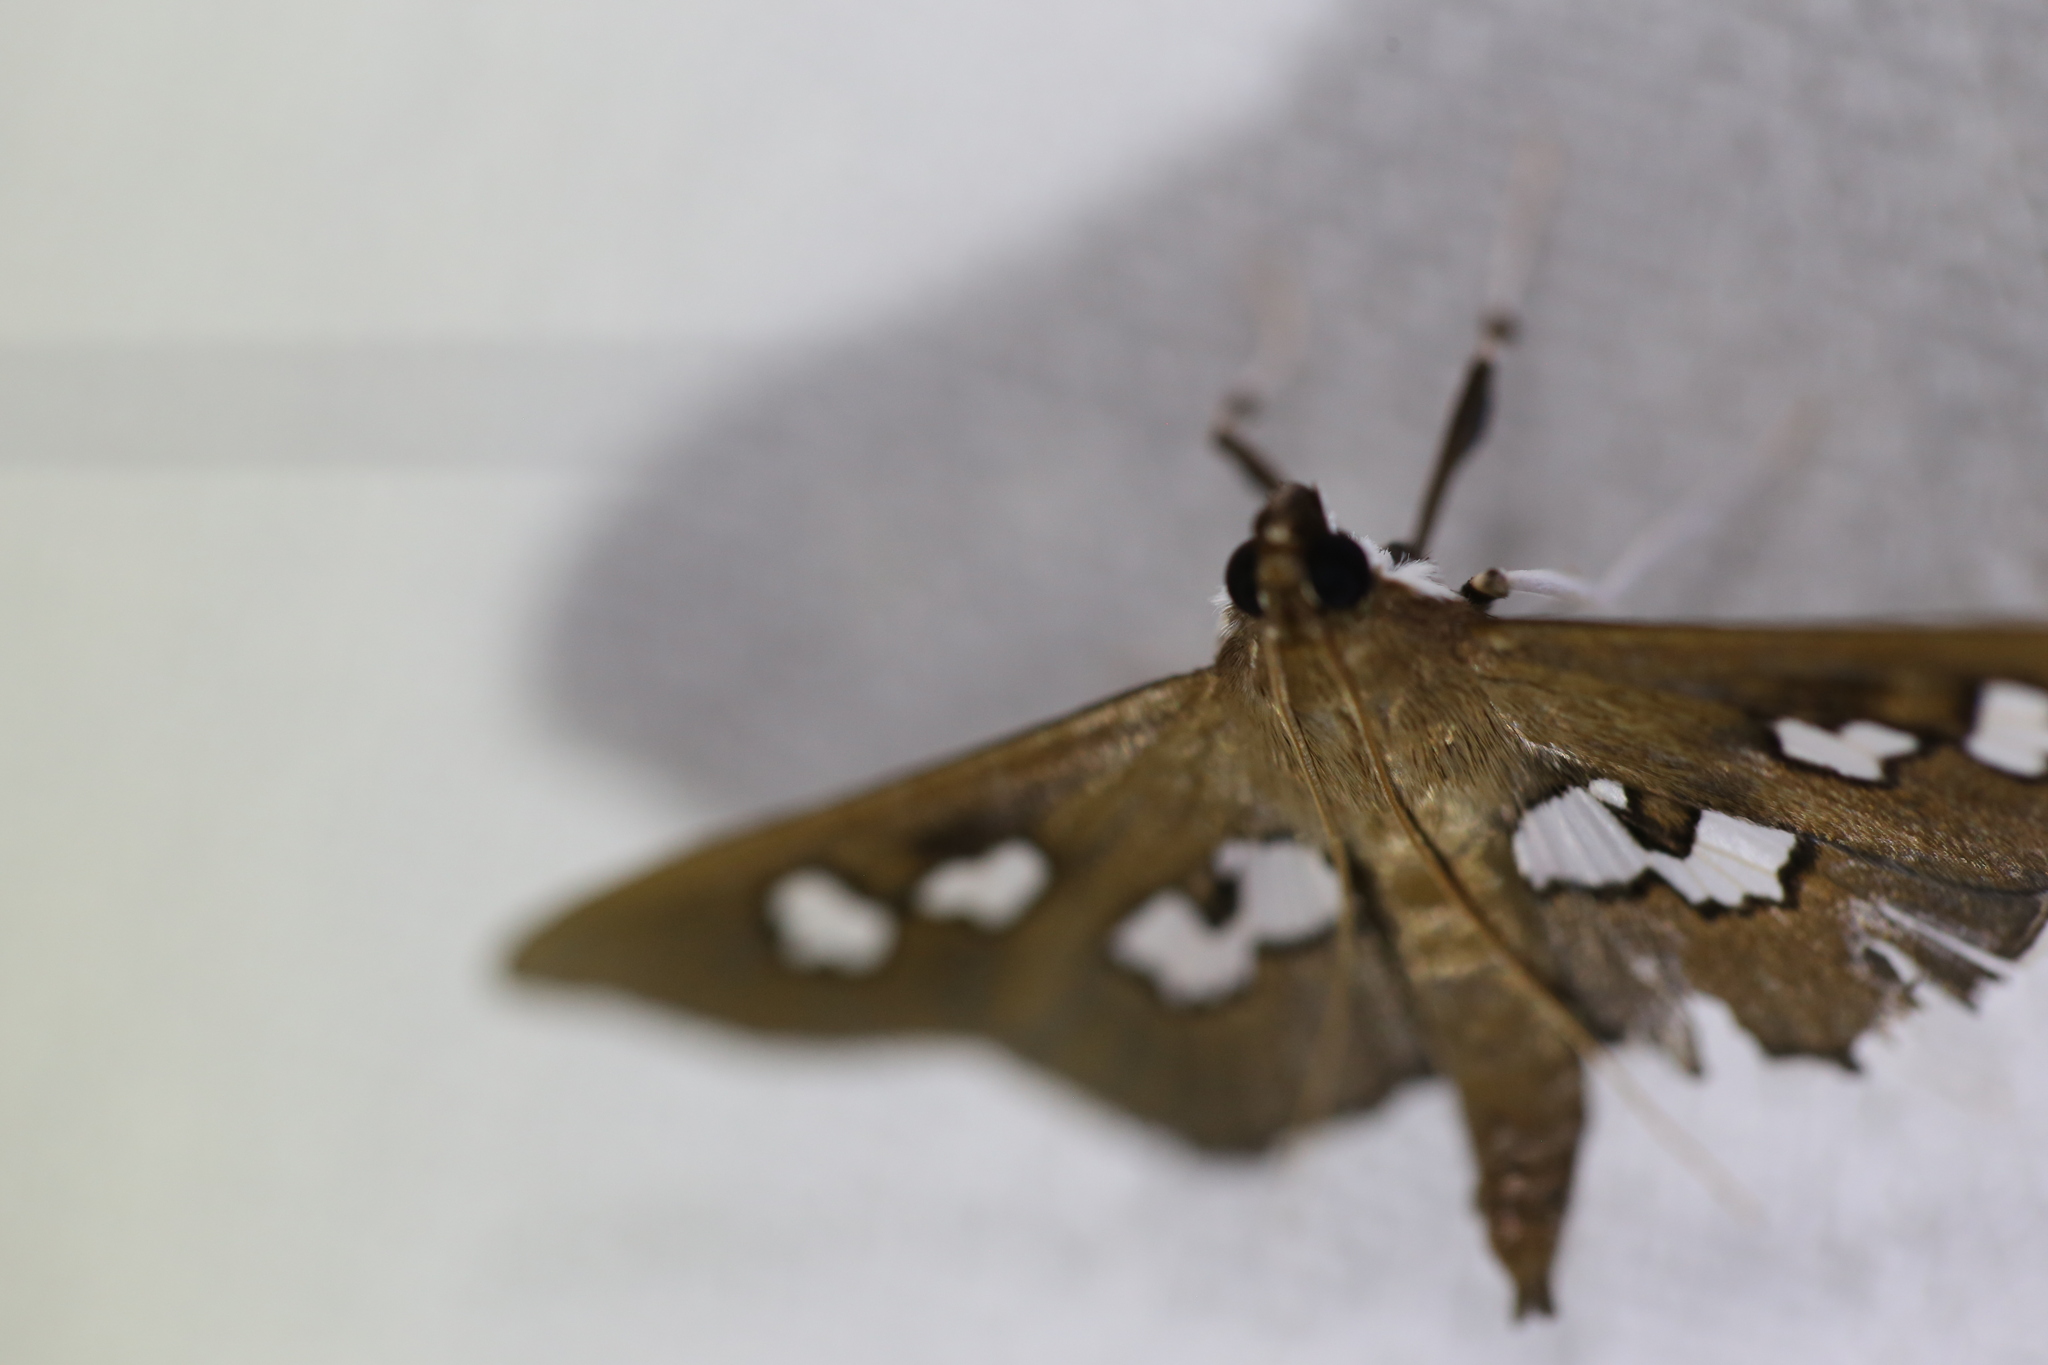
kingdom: Animalia
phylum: Arthropoda
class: Insecta
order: Lepidoptera
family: Crambidae
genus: Omiodes
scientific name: Omiodes odontosticta
